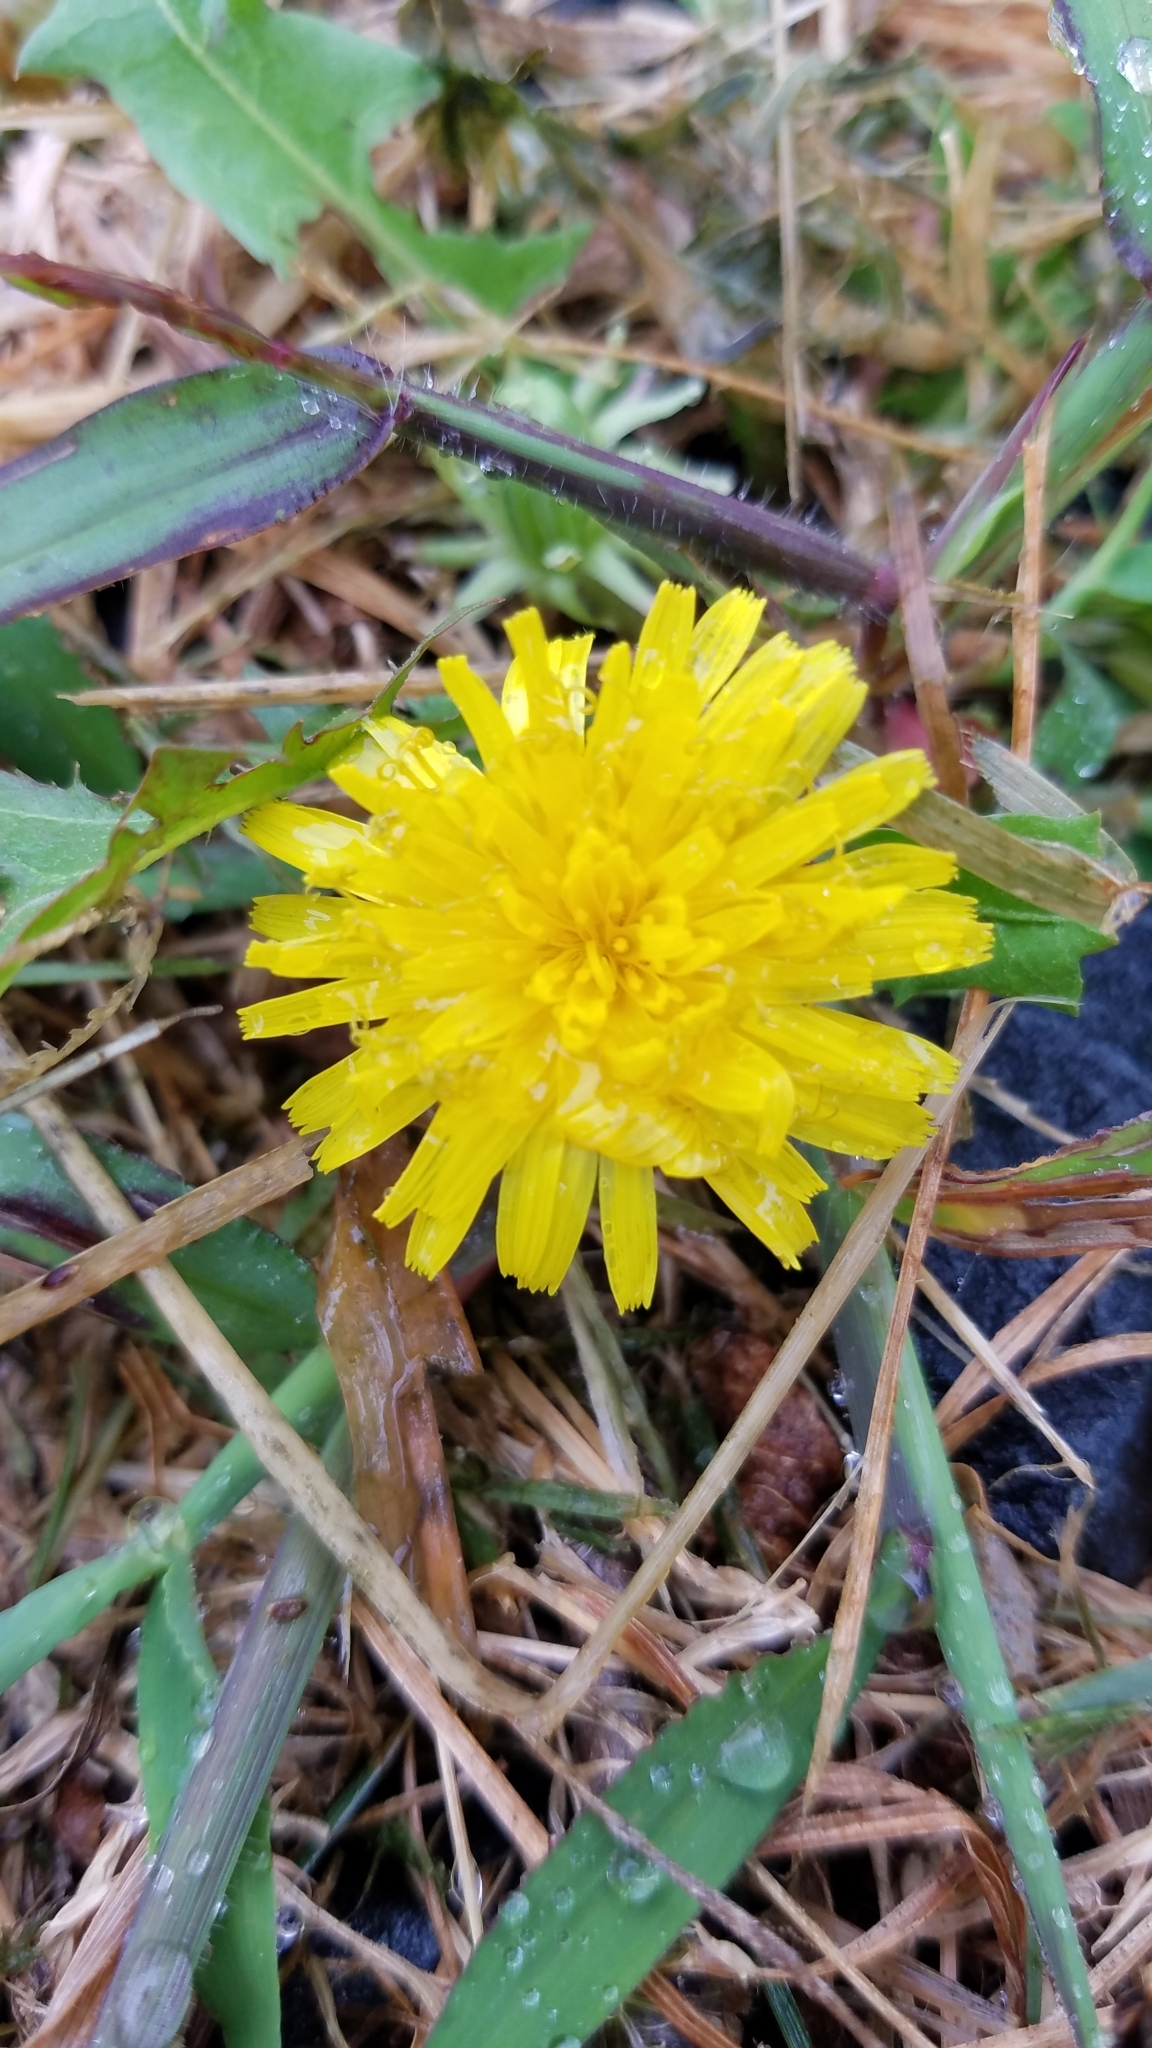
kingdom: Plantae
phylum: Tracheophyta
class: Magnoliopsida
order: Asterales
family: Asteraceae
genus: Taraxacum
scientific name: Taraxacum officinale
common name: Common dandelion
